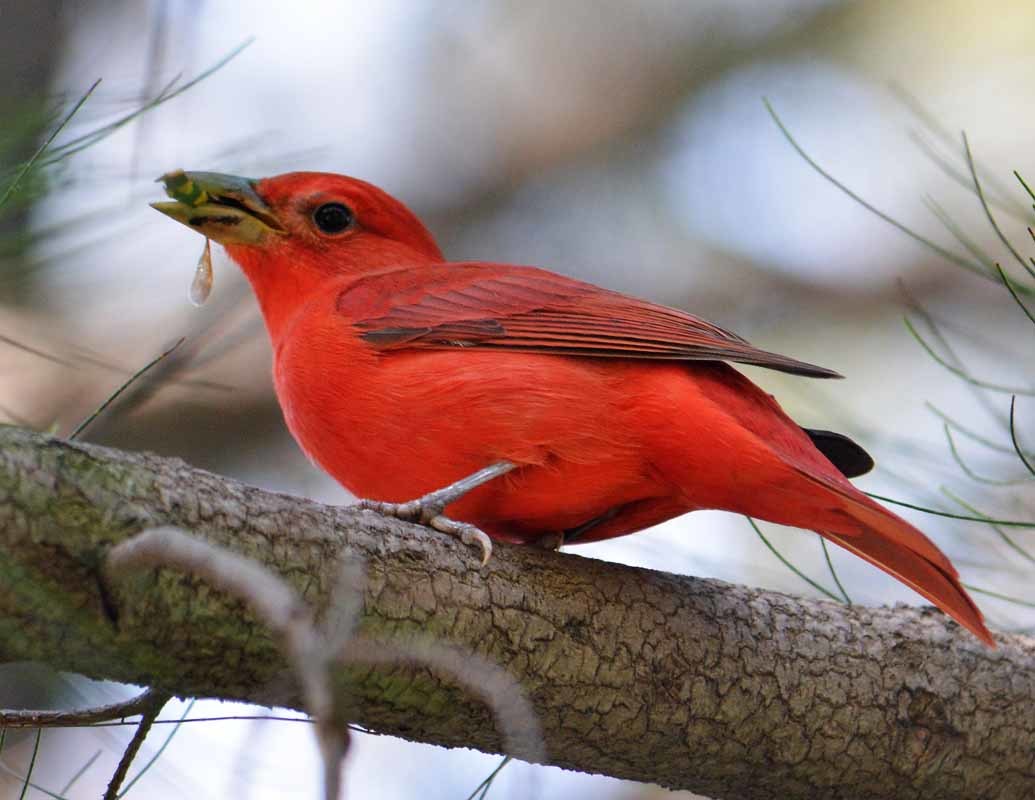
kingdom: Animalia
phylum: Chordata
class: Aves
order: Passeriformes
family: Cardinalidae
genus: Piranga
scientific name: Piranga rubra
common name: Summer tanager
